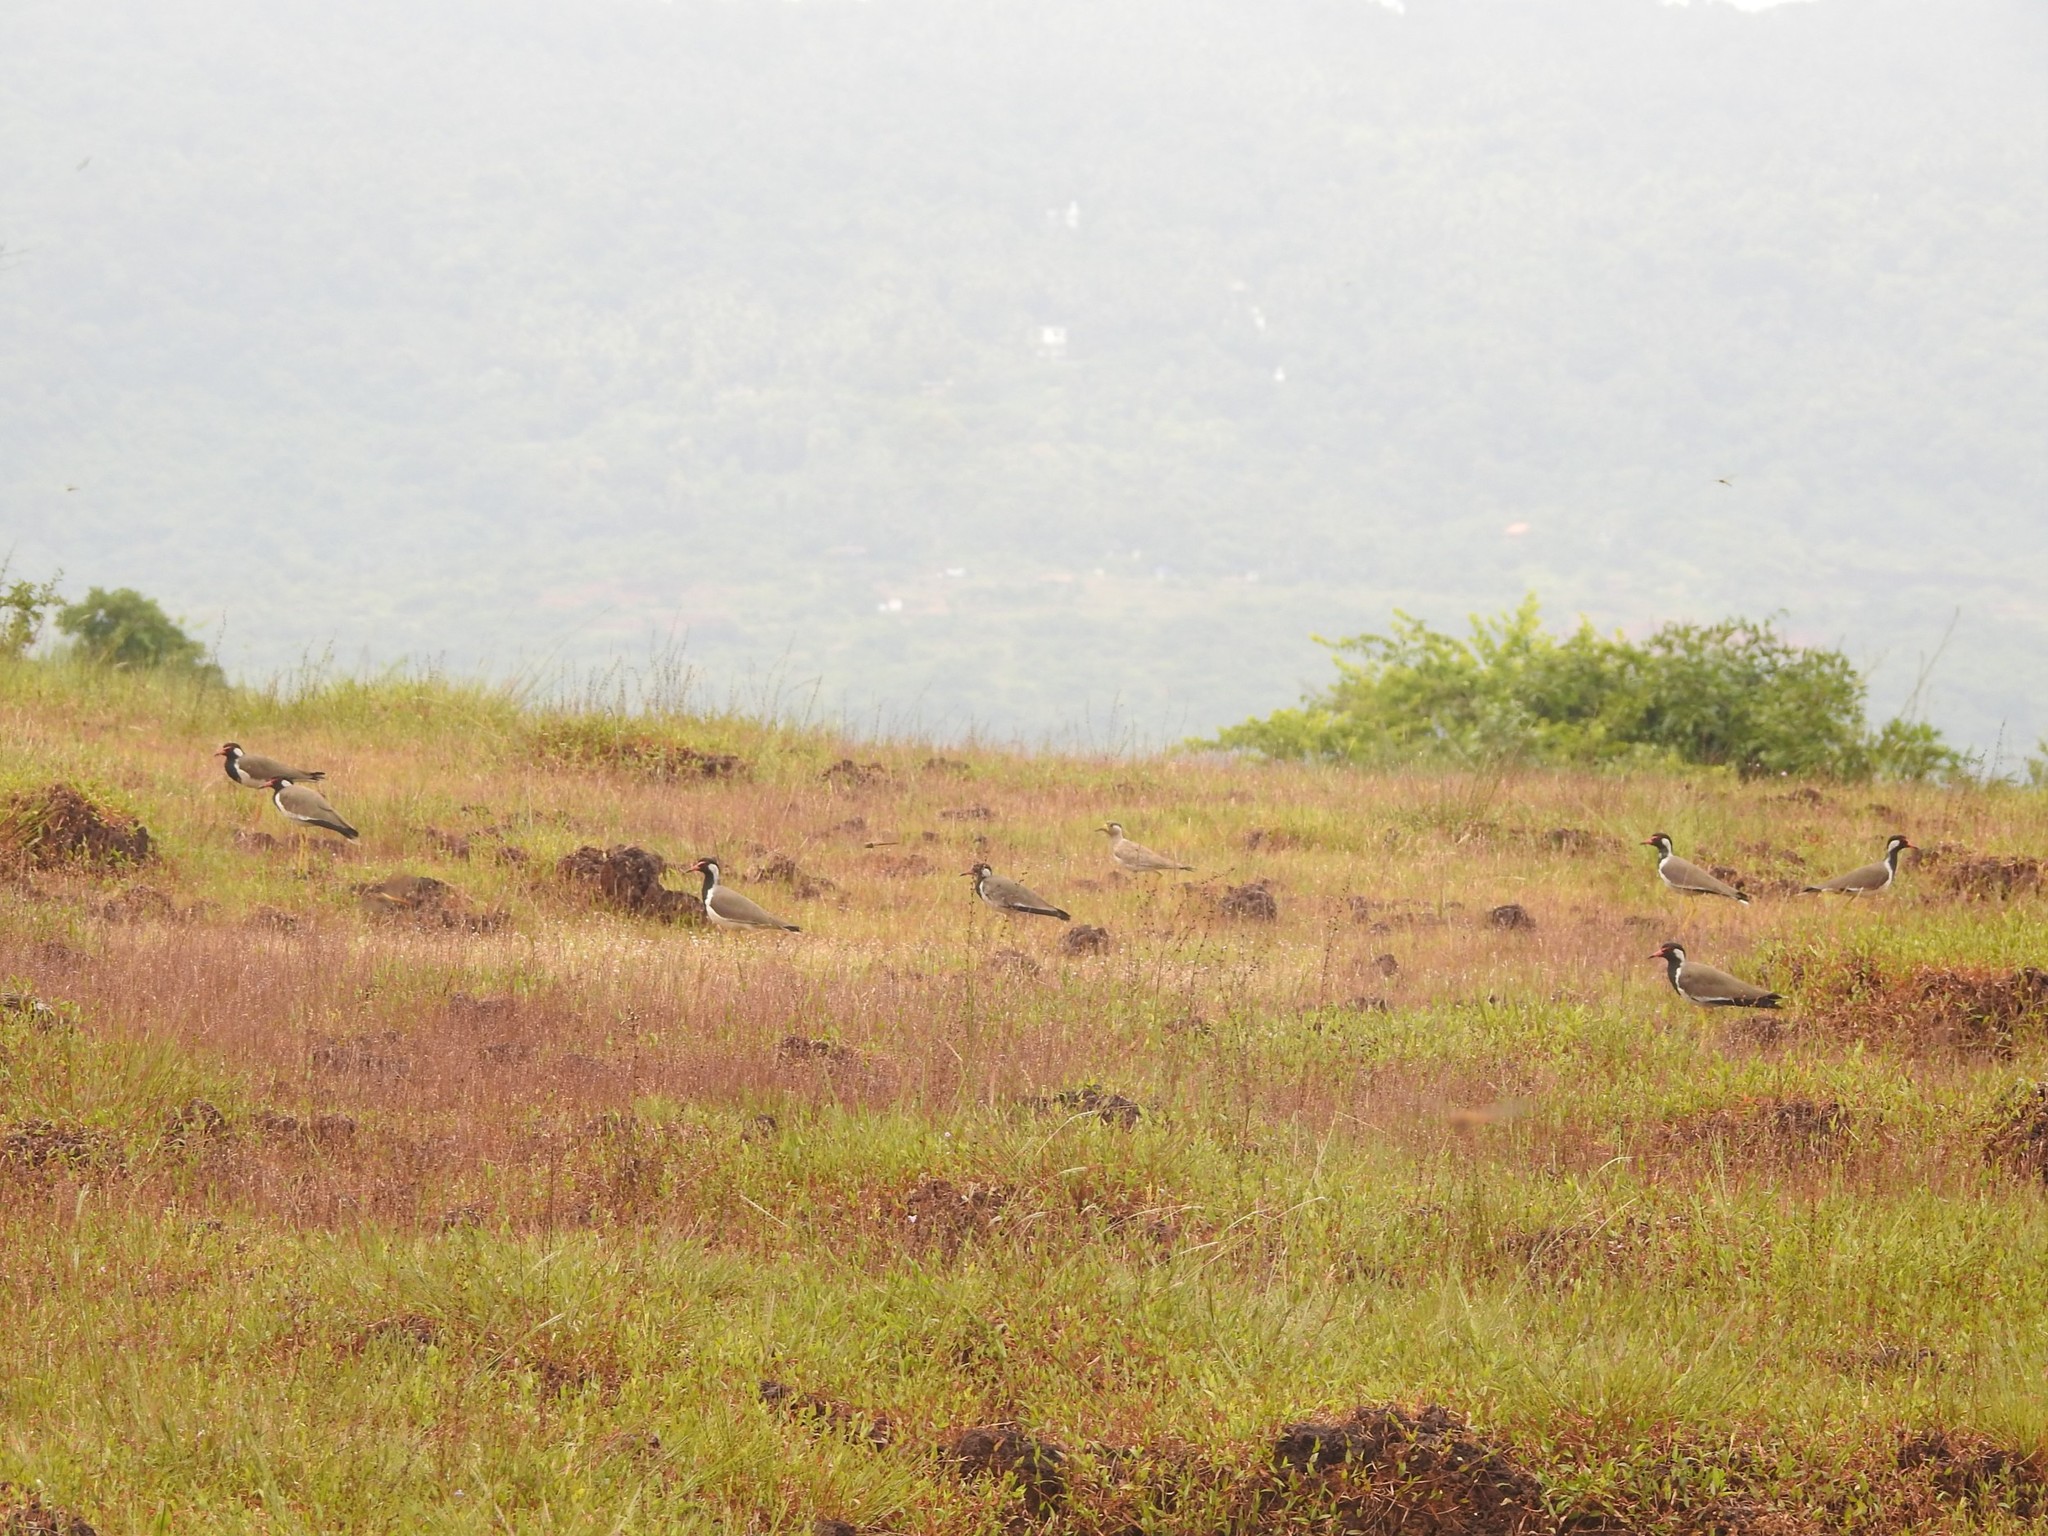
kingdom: Animalia
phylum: Chordata
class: Aves
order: Charadriiformes
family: Charadriidae
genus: Vanellus
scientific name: Vanellus indicus
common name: Red-wattled lapwing
